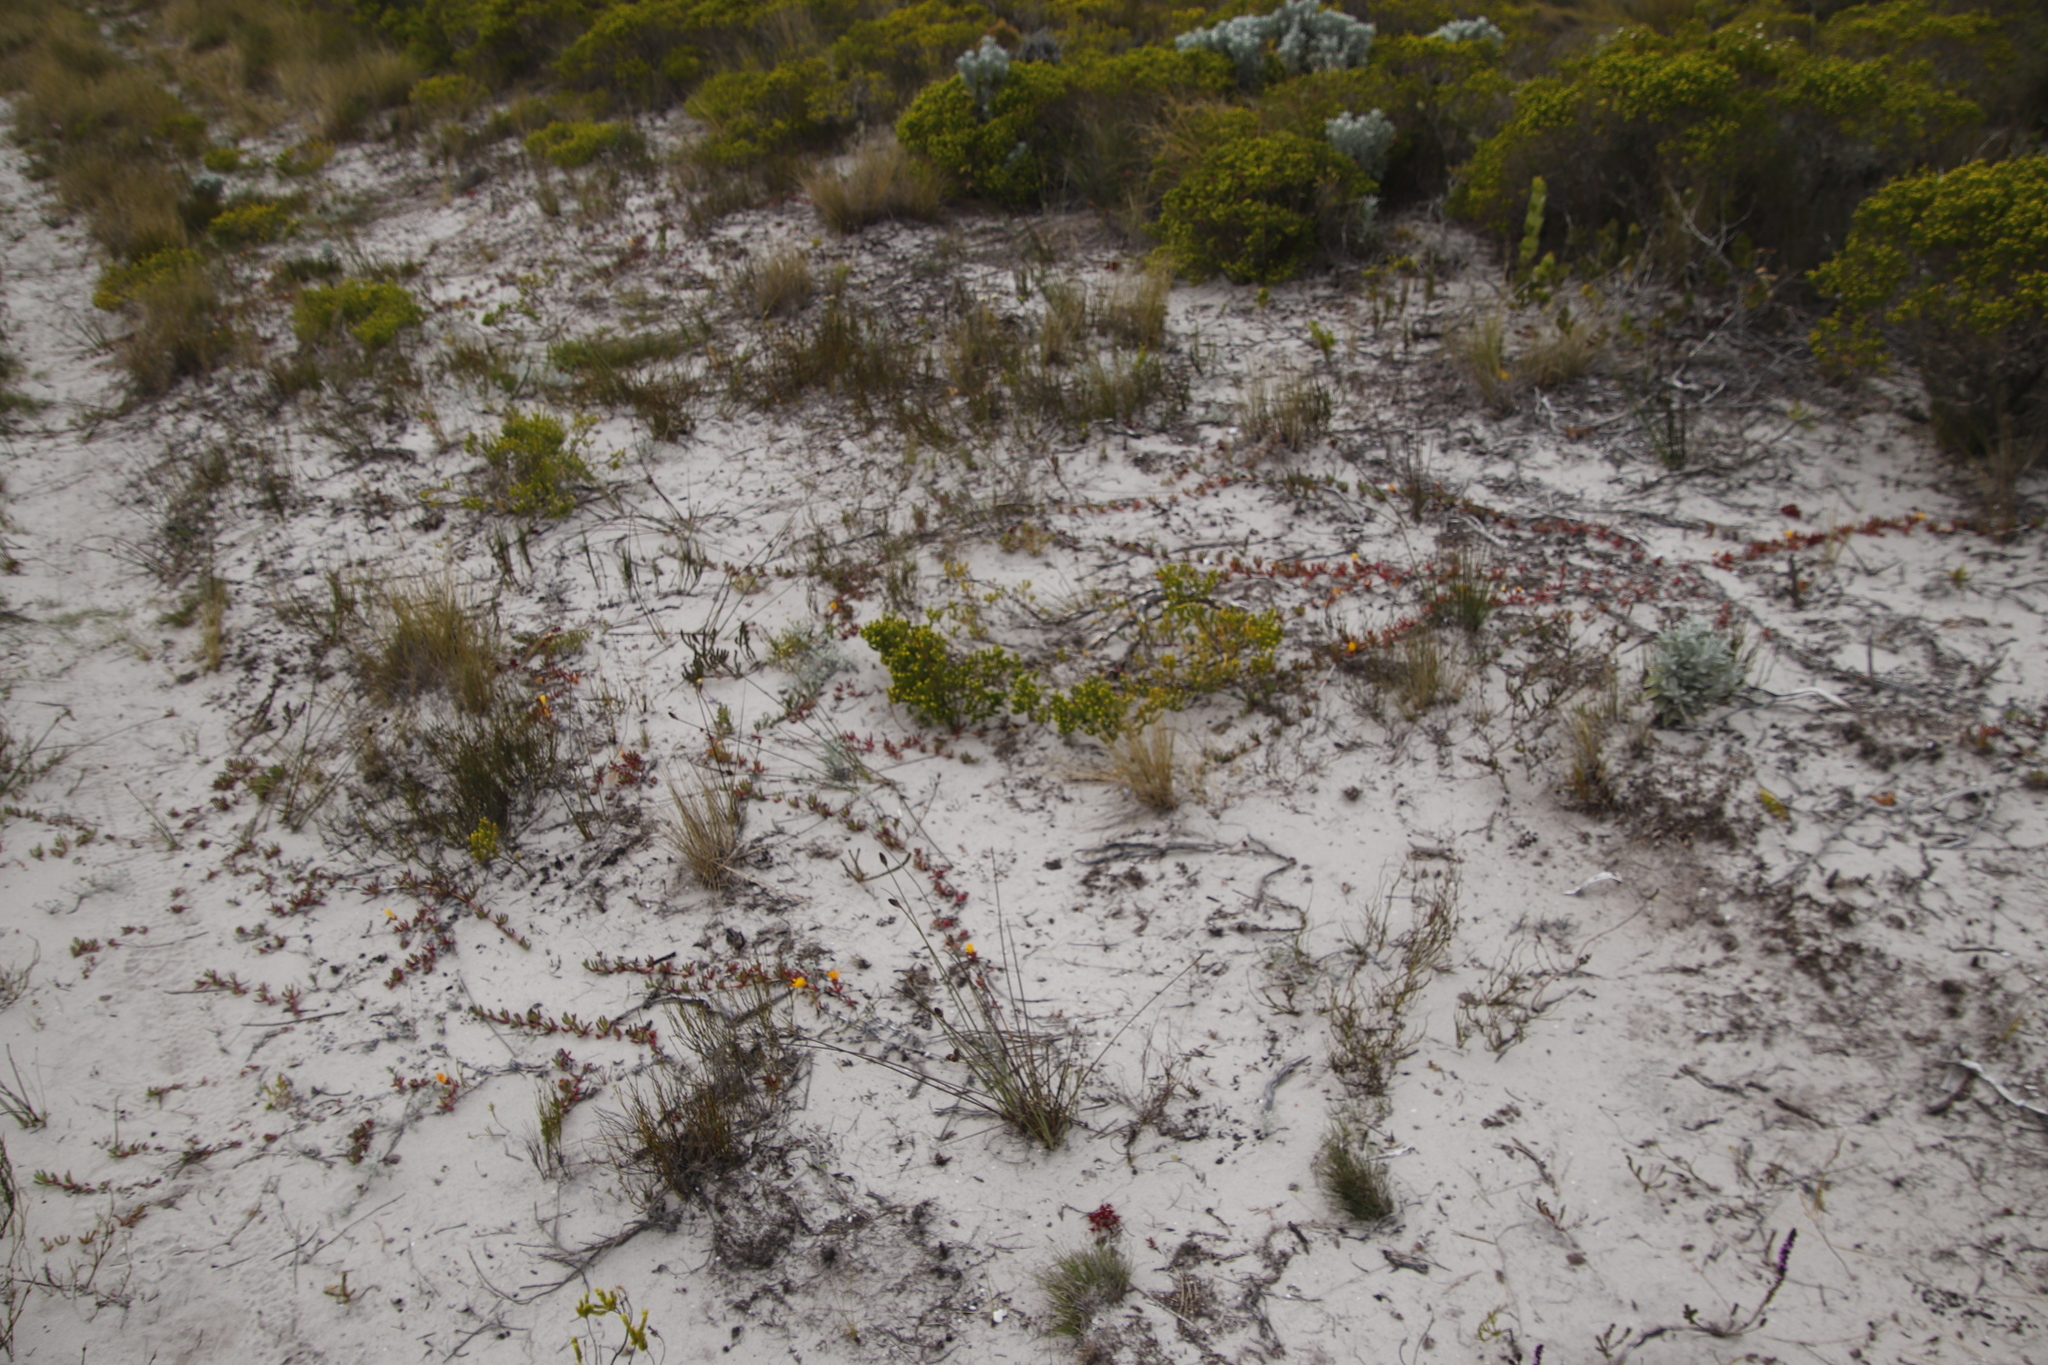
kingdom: Plantae
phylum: Tracheophyta
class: Magnoliopsida
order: Caryophyllales
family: Aizoaceae
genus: Jordaaniella
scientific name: Jordaaniella dubia
